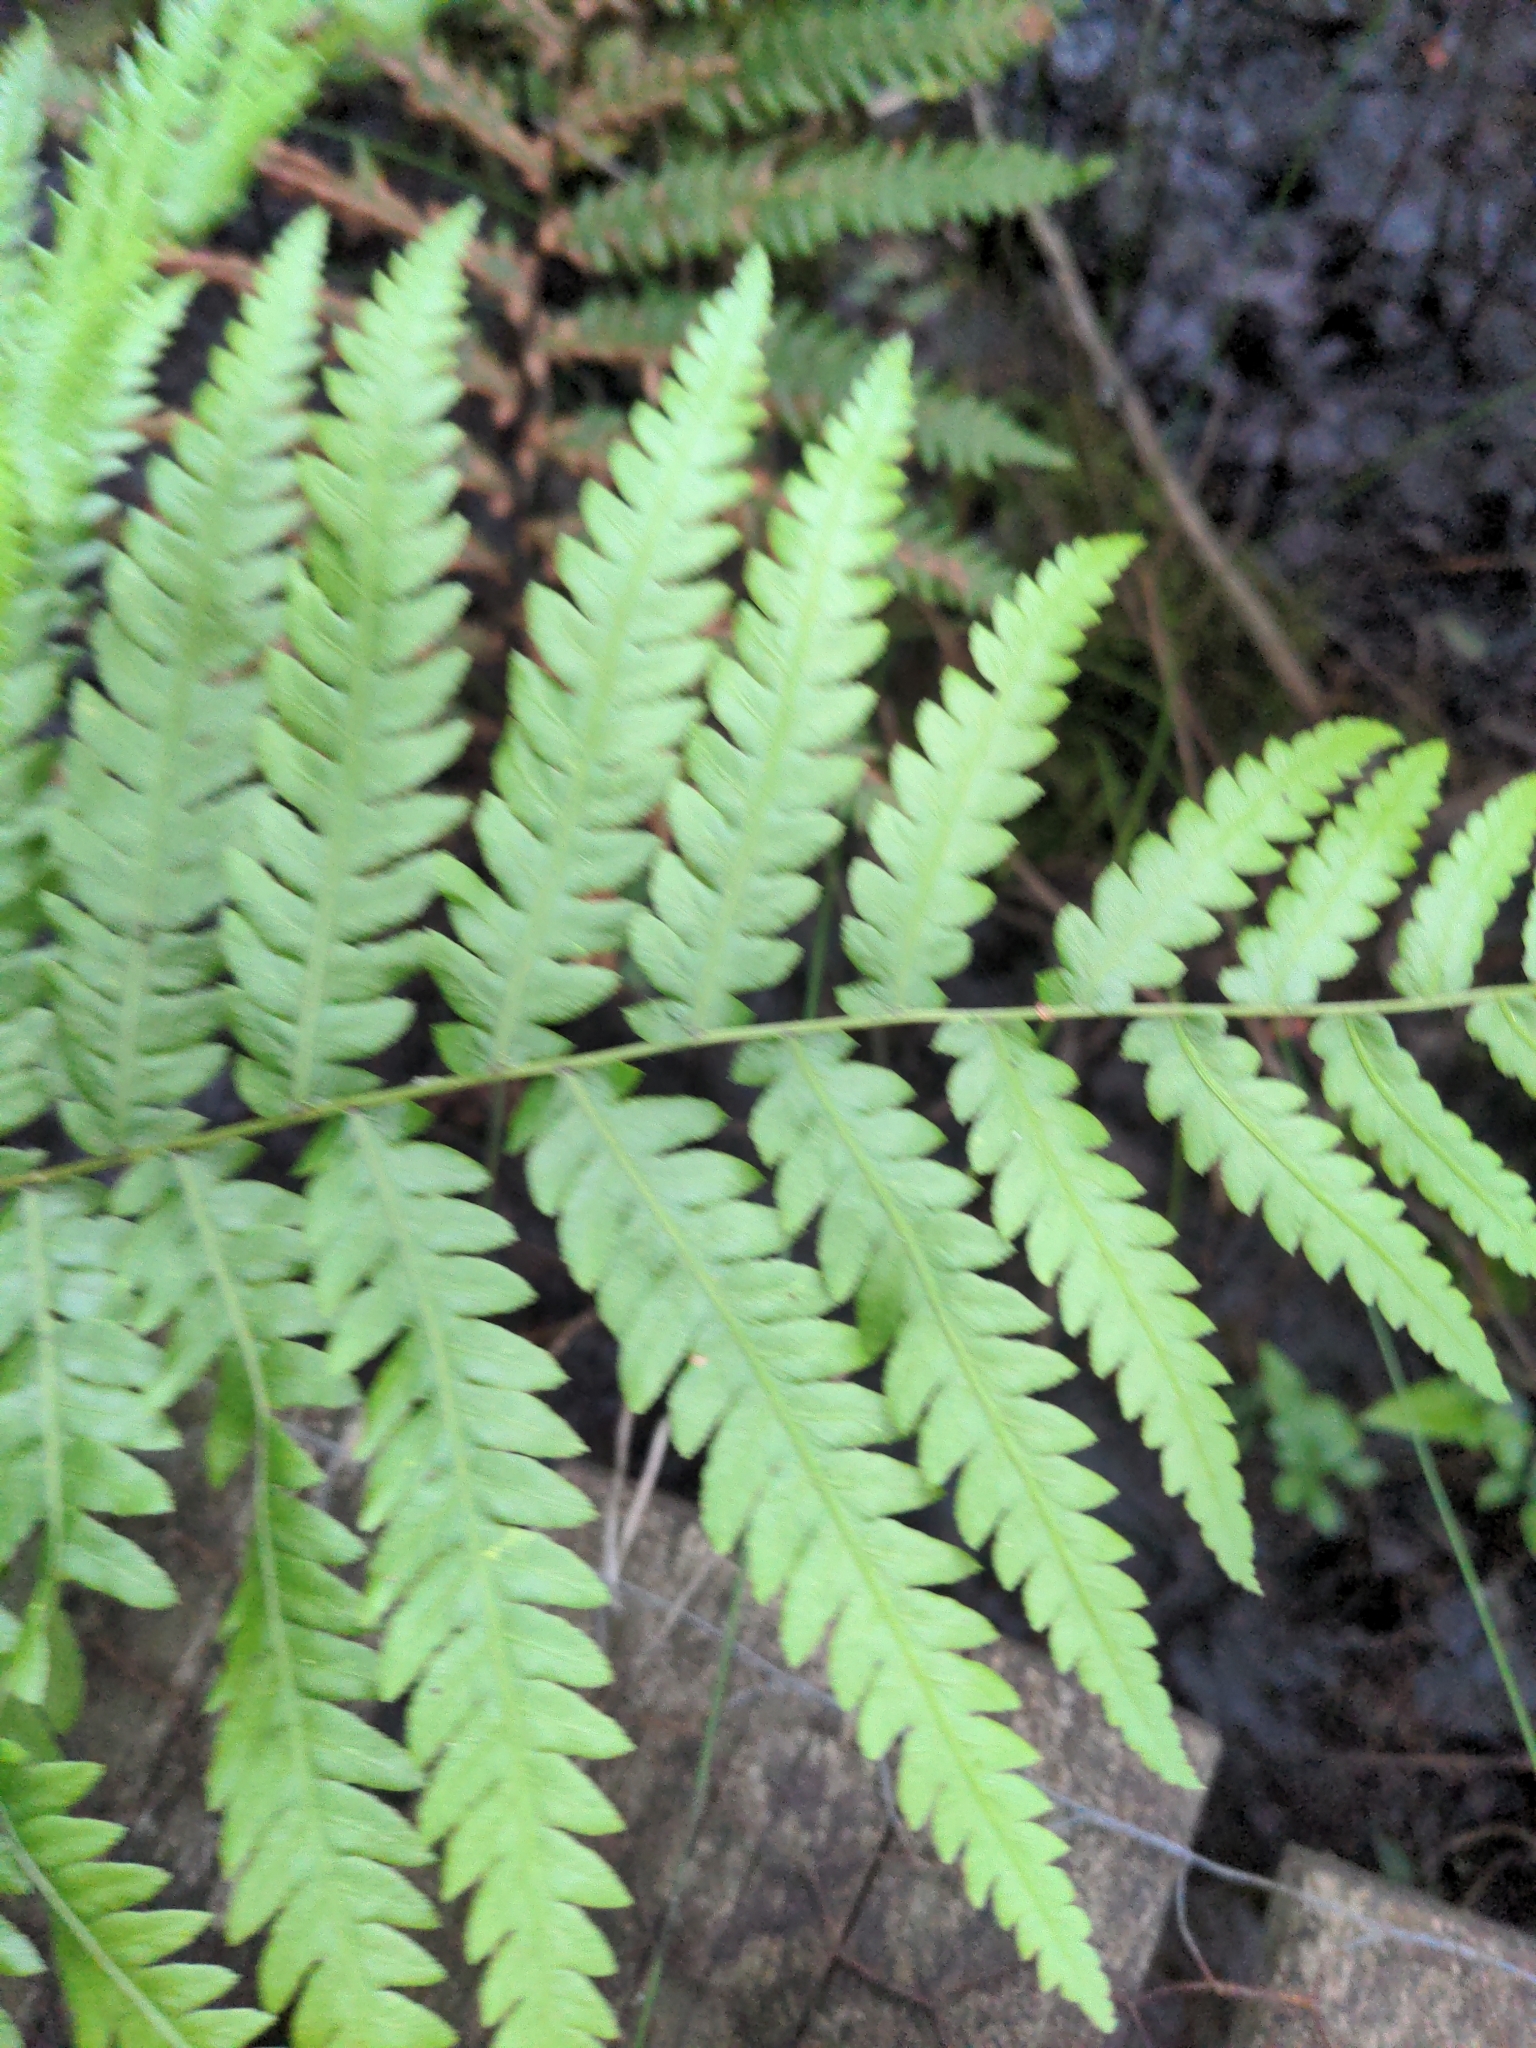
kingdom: Plantae
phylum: Tracheophyta
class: Polypodiopsida
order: Polypodiales
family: Blechnaceae
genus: Anchistea
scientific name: Anchistea virginica
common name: Virginia chain fern
